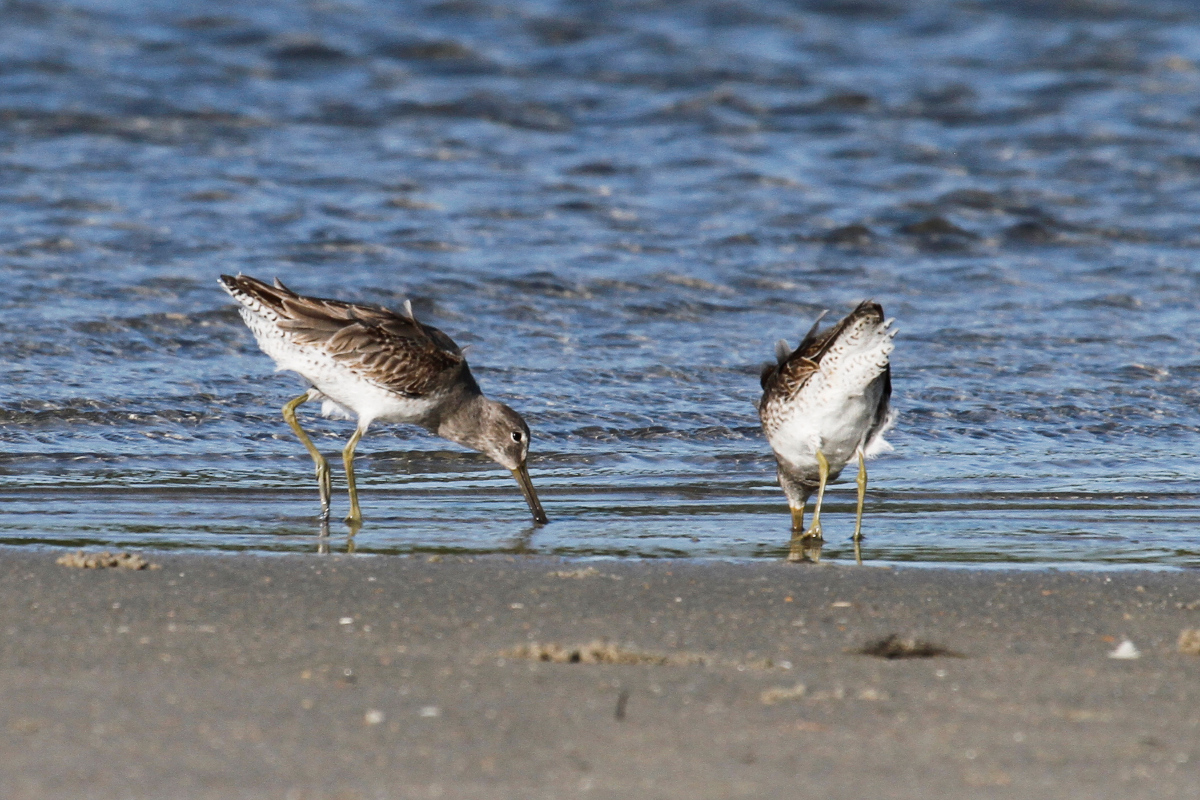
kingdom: Animalia
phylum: Chordata
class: Aves
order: Charadriiformes
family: Scolopacidae
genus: Limnodromus
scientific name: Limnodromus griseus
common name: Short-billed dowitcher
